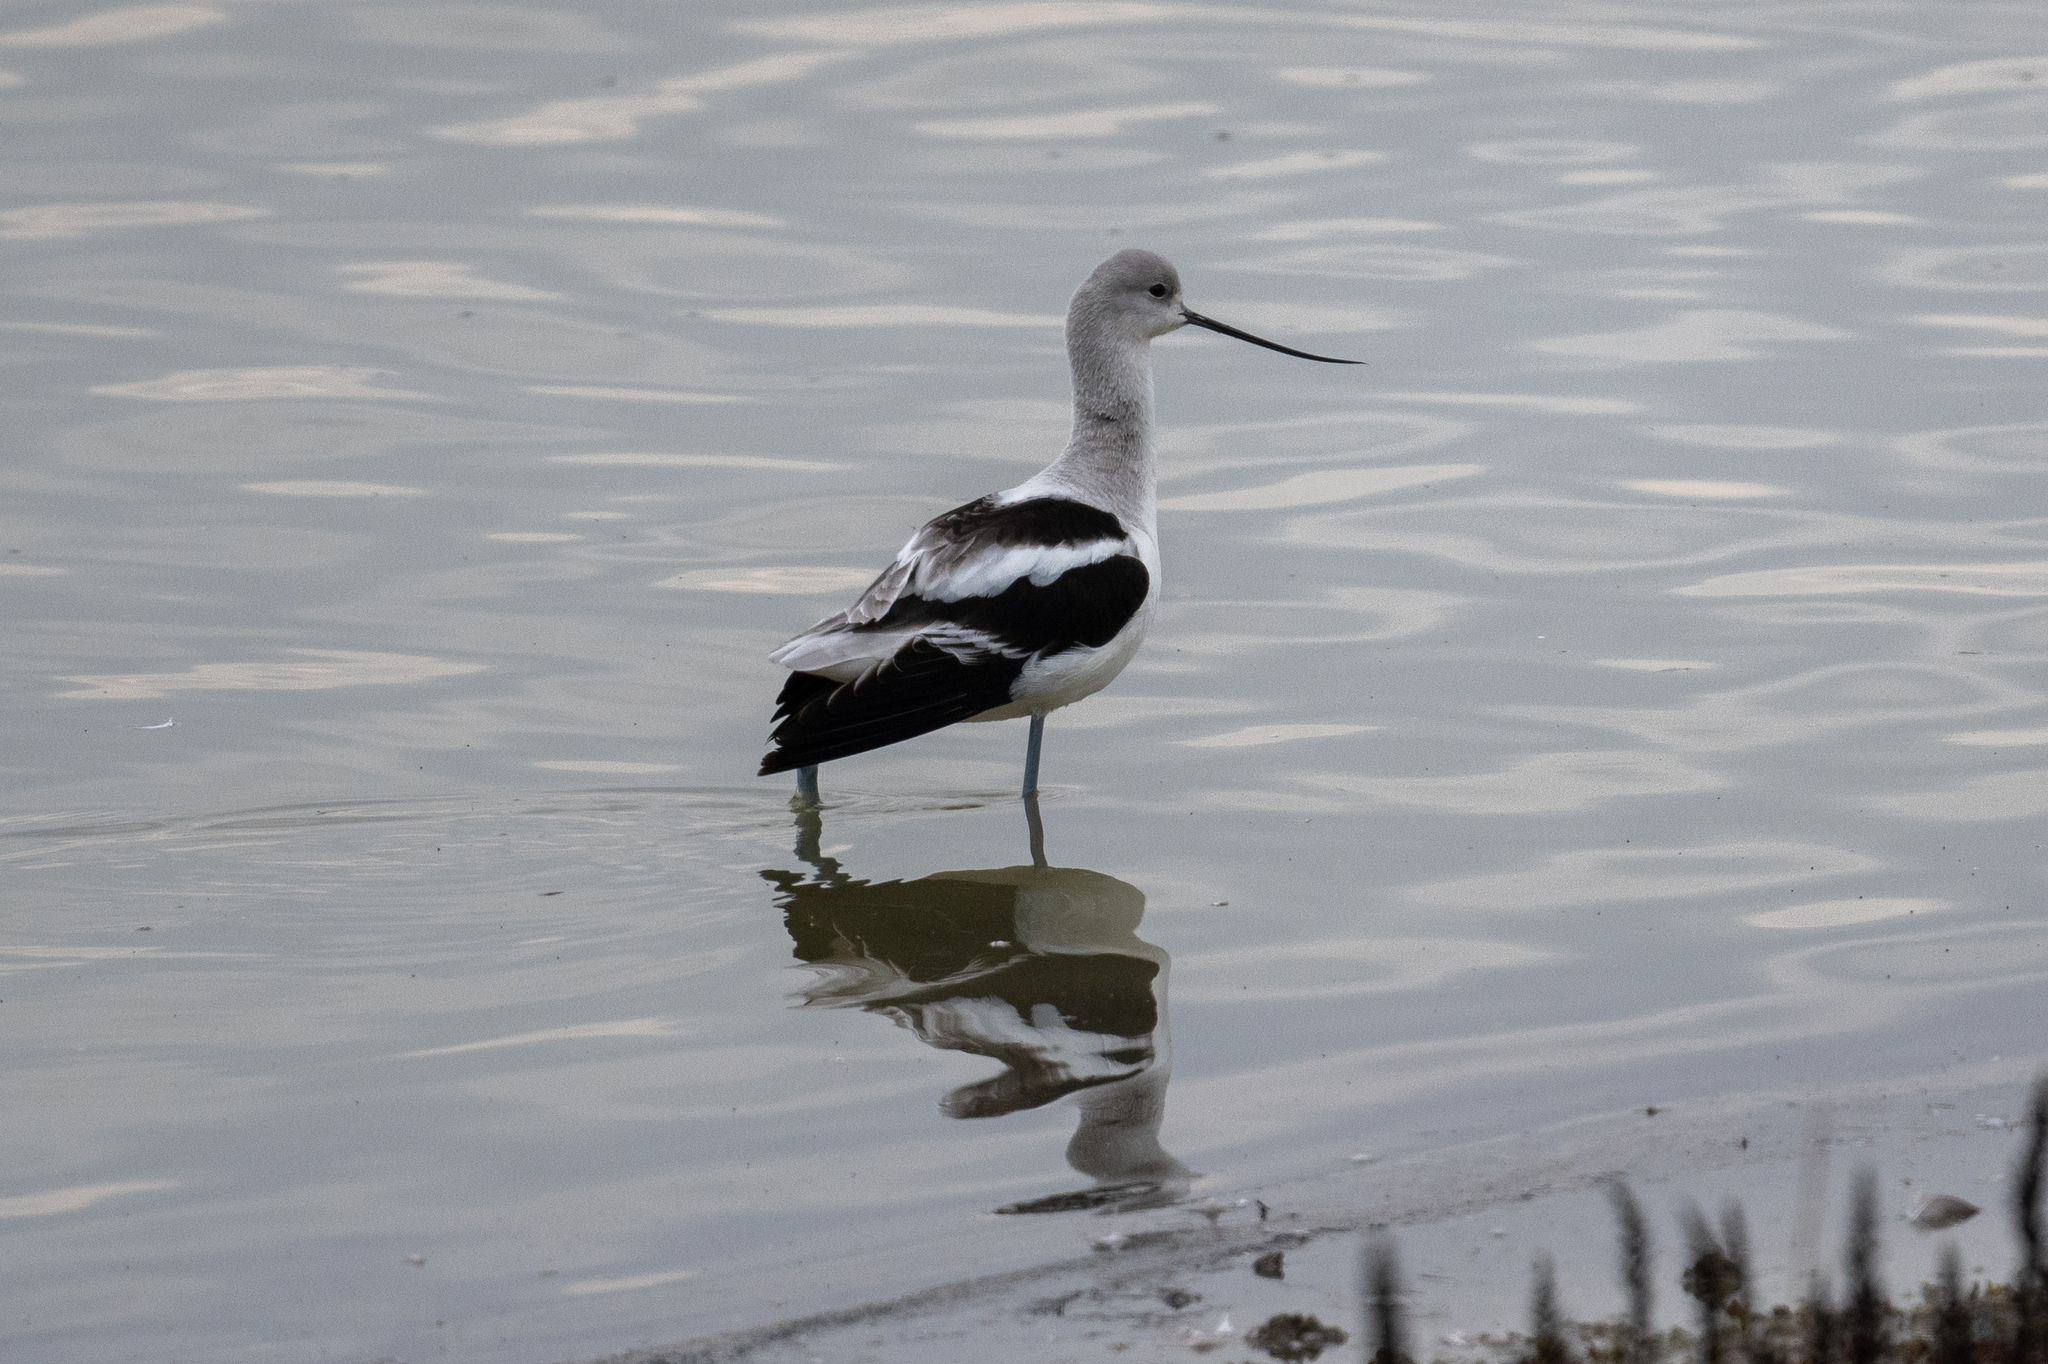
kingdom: Animalia
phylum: Chordata
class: Aves
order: Charadriiformes
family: Recurvirostridae
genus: Recurvirostra
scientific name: Recurvirostra americana
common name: American avocet
